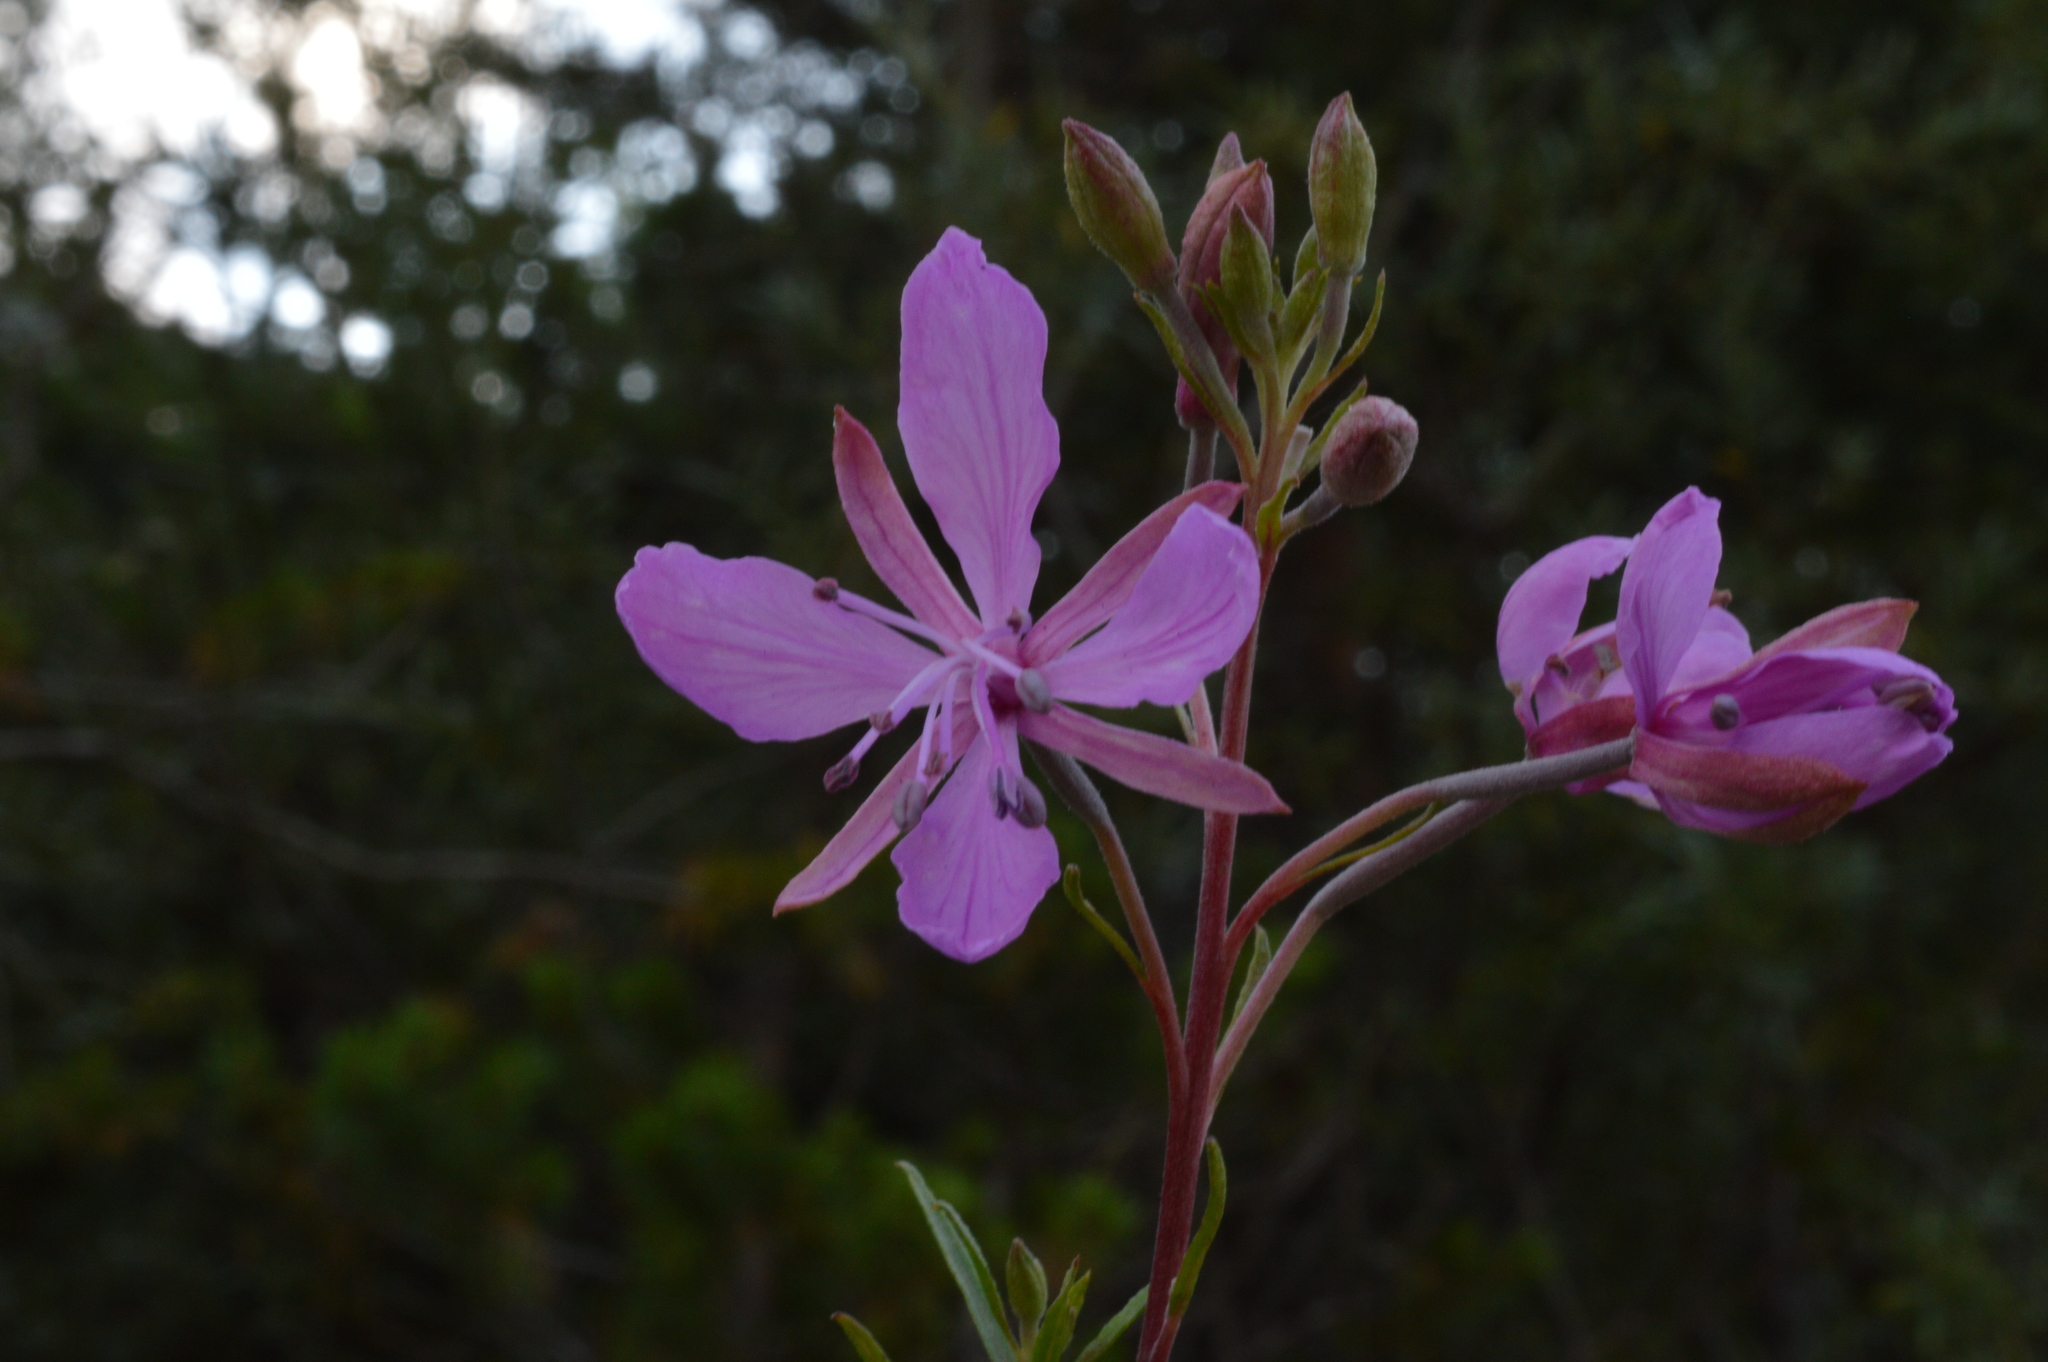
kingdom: Plantae
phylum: Tracheophyta
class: Magnoliopsida
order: Myrtales
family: Onagraceae
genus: Chamaenerion
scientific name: Chamaenerion dodonaei
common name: Rosemary-leaved willowherb
